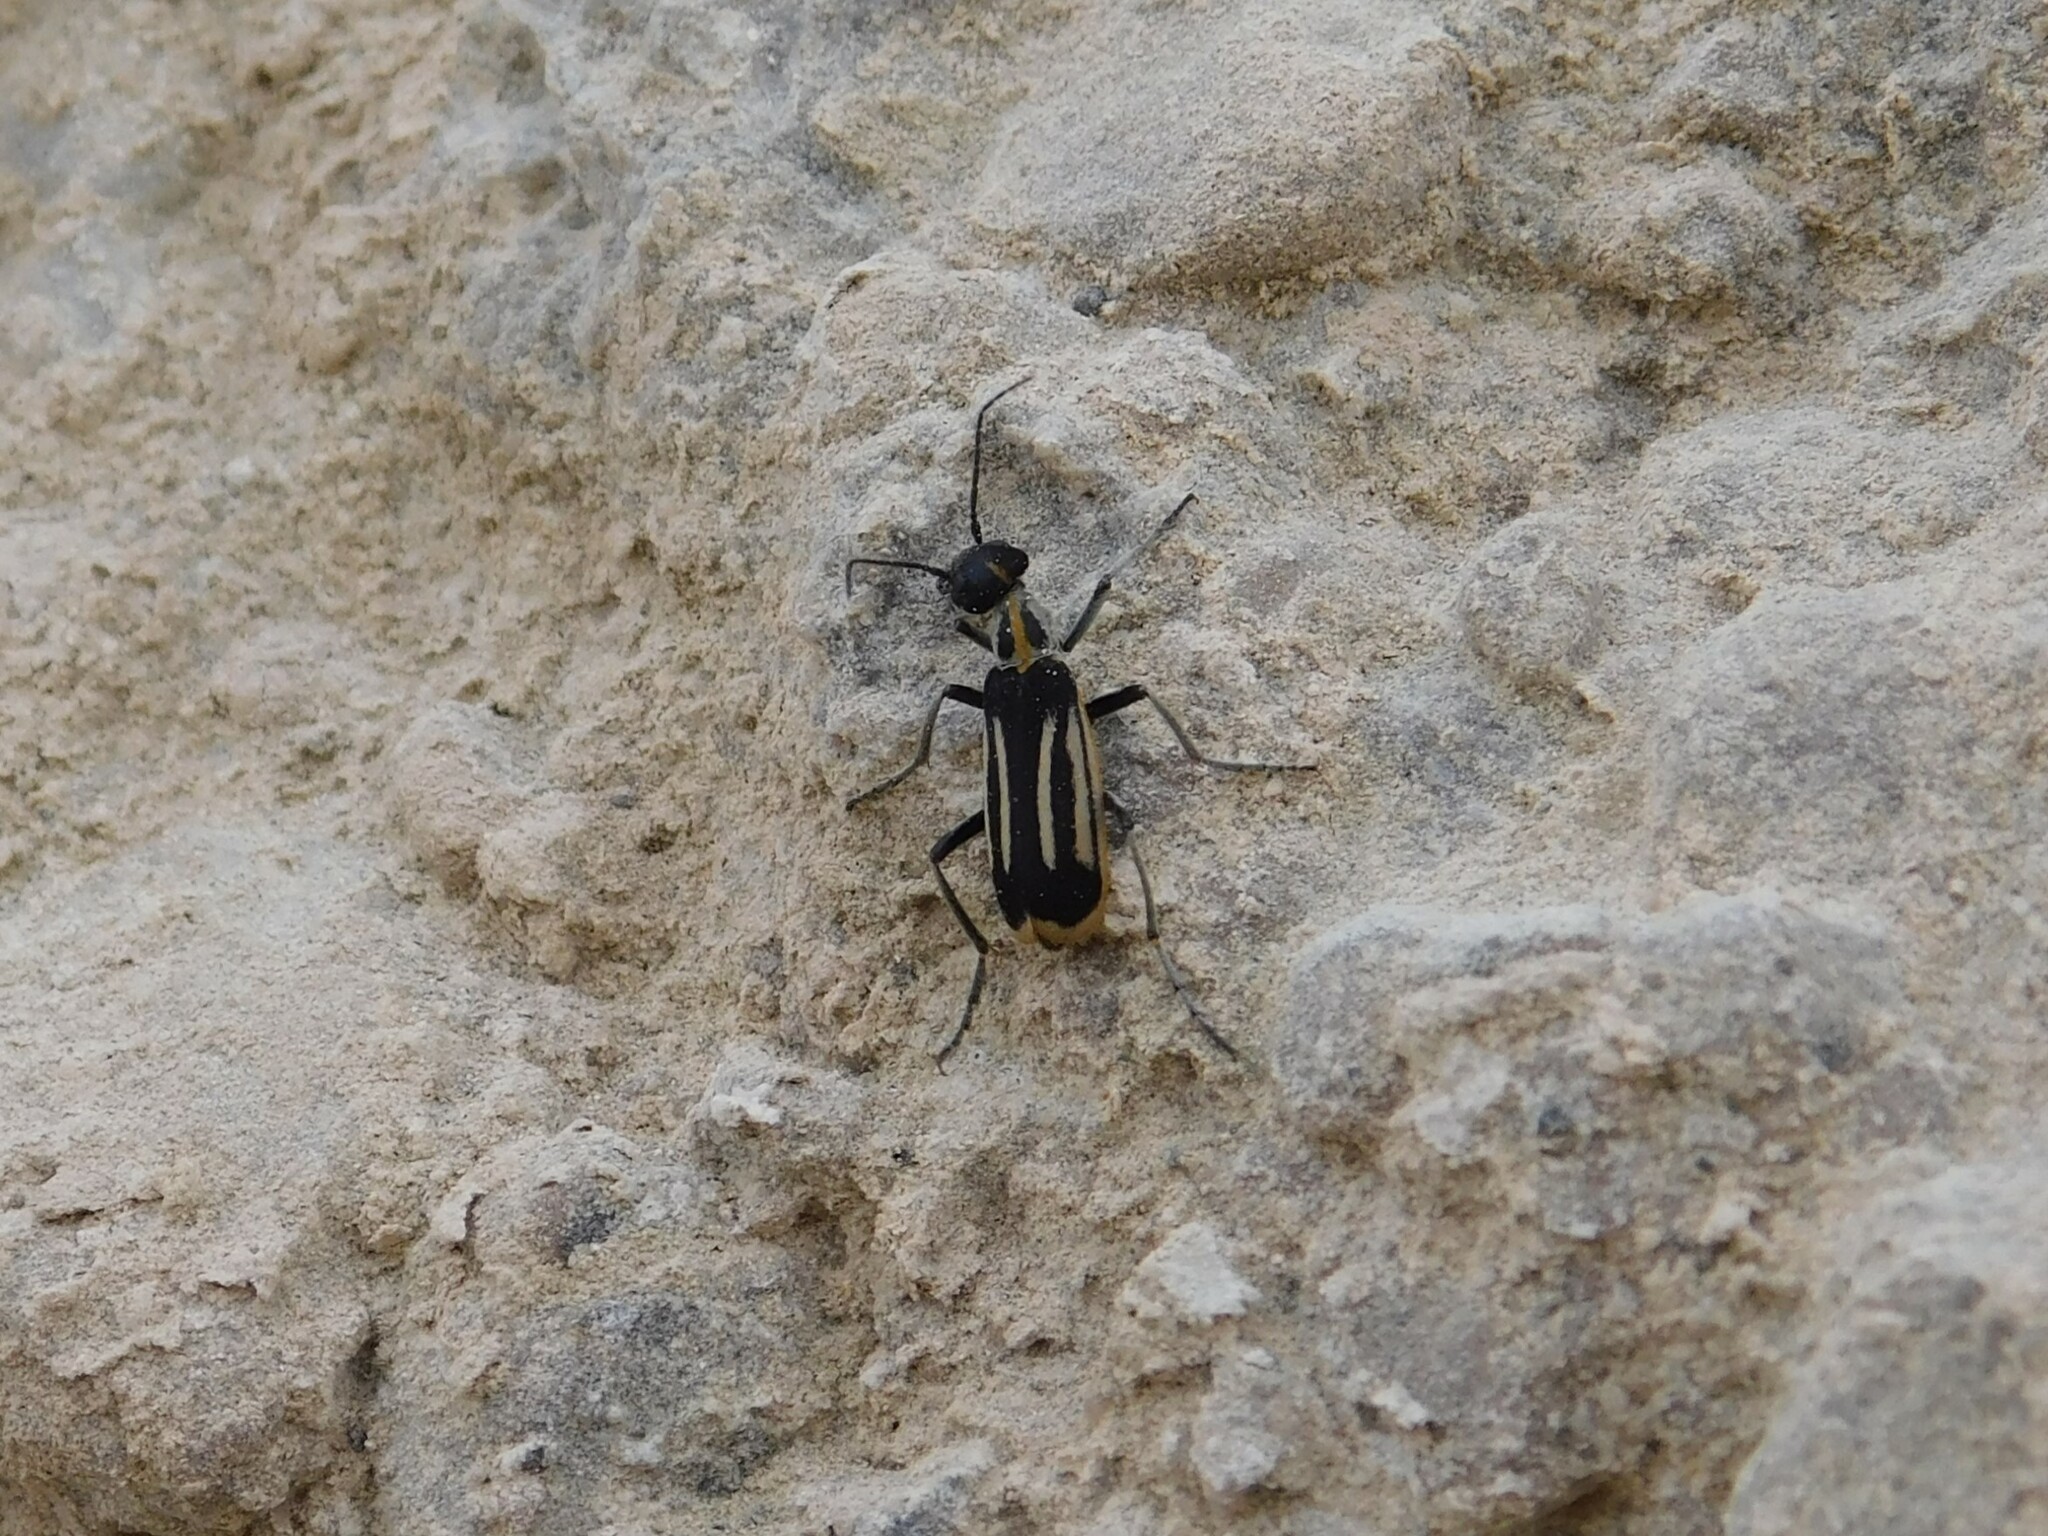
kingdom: Animalia
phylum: Arthropoda
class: Insecta
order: Coleoptera
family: Meloidae
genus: Epicauta
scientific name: Epicauta semivittata
